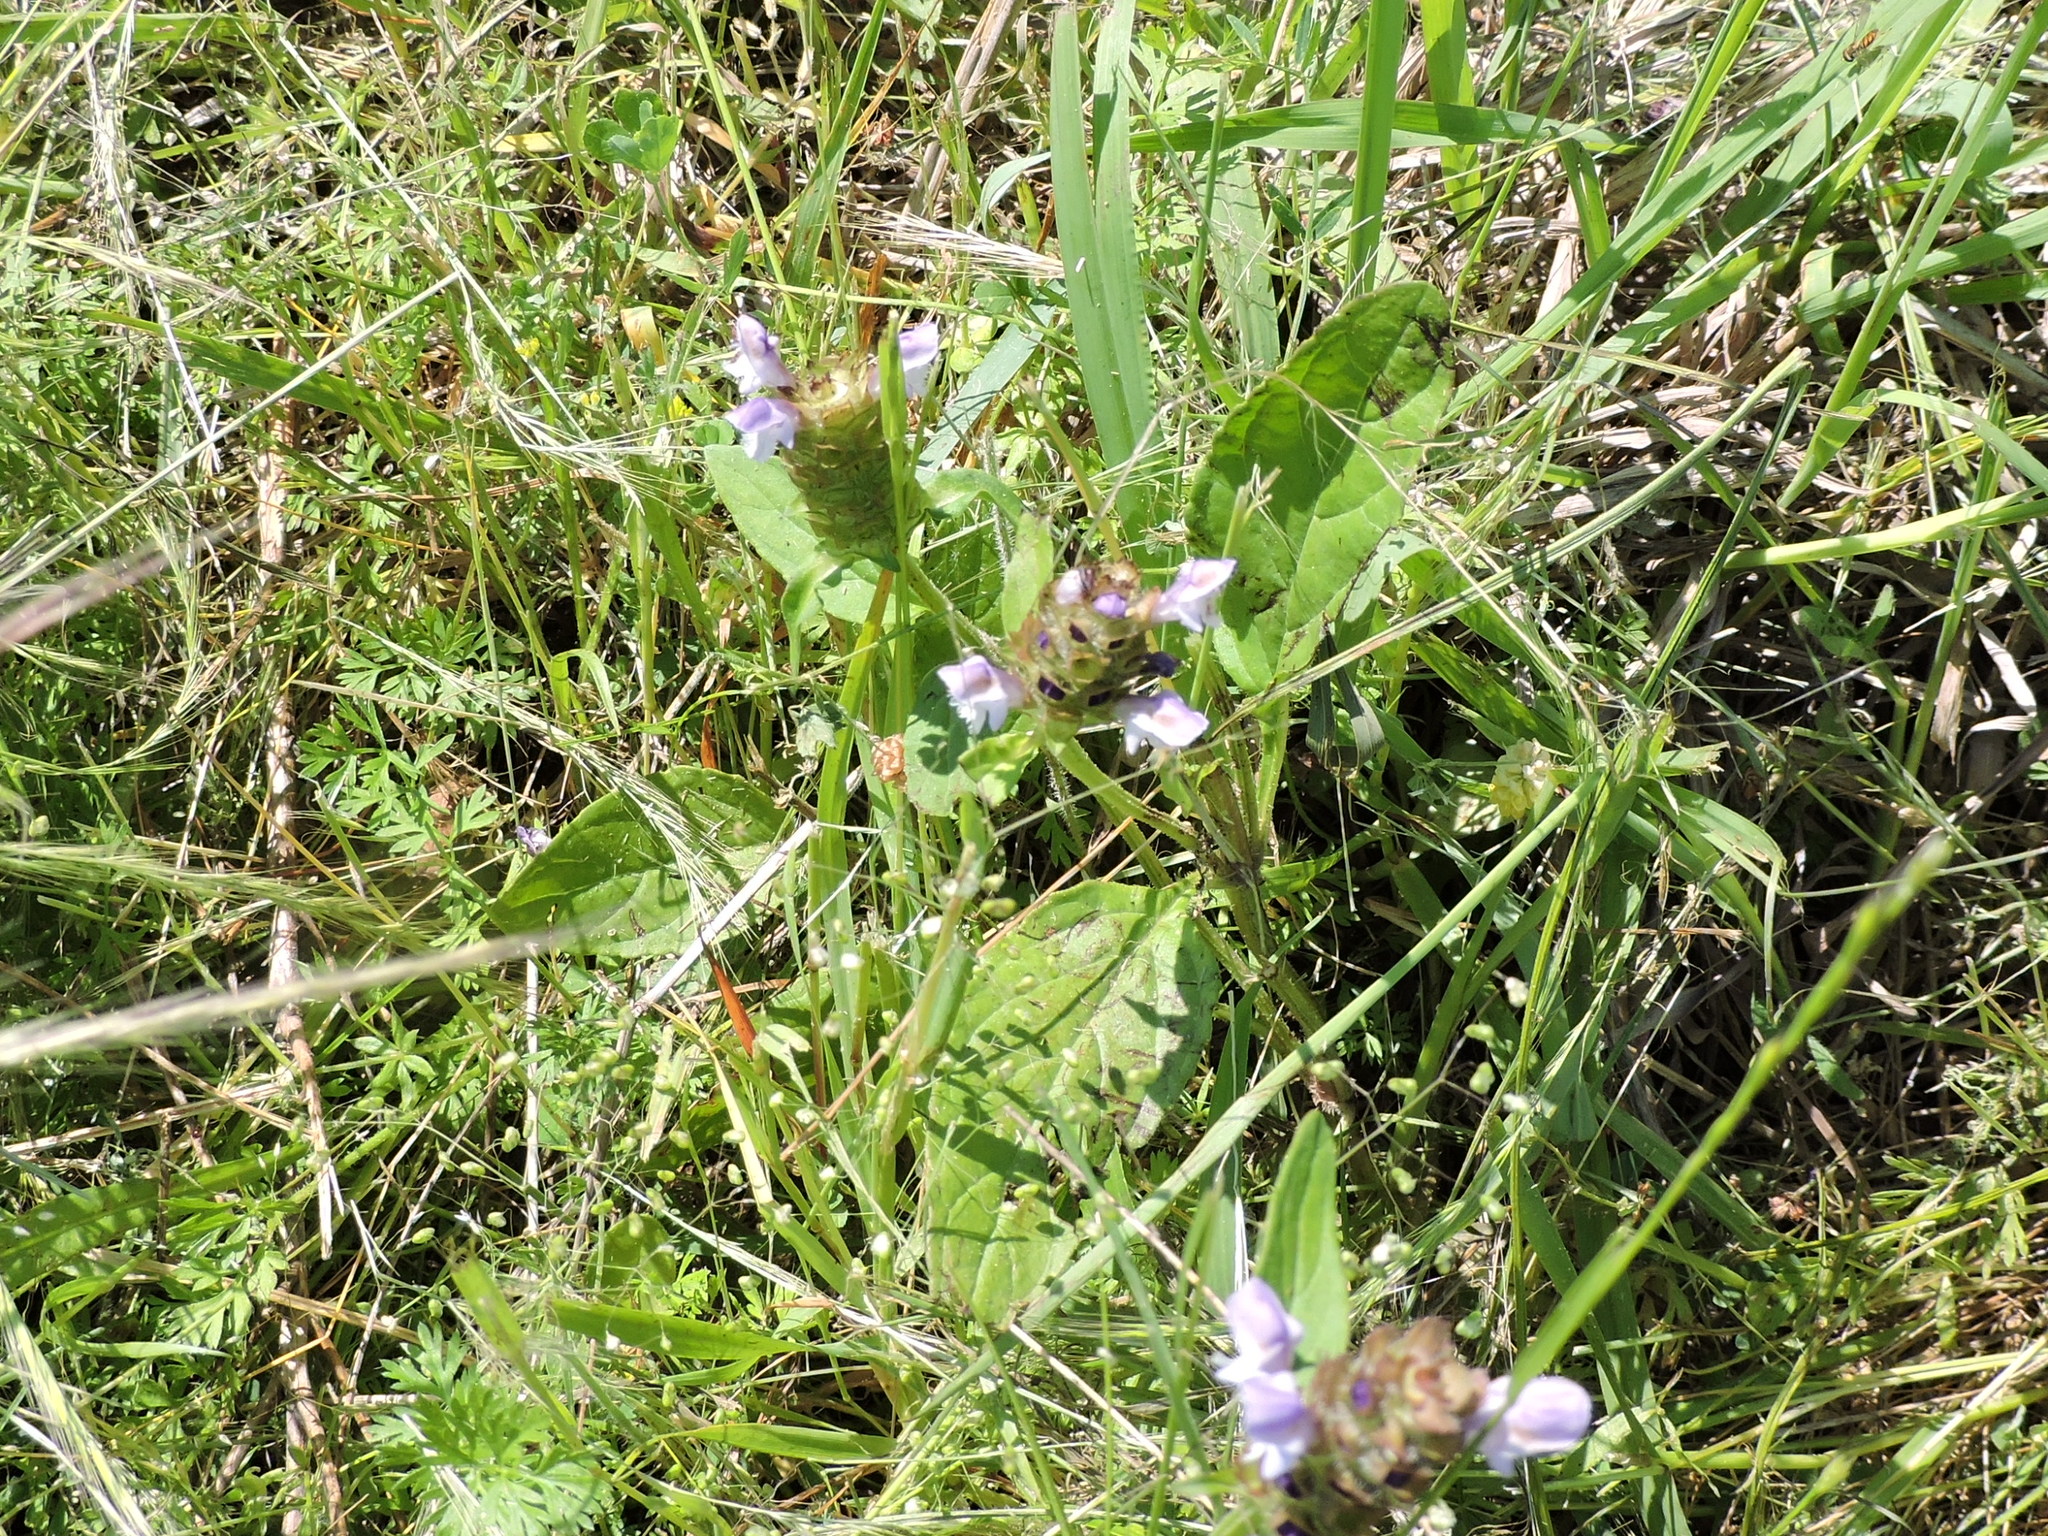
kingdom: Plantae
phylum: Tracheophyta
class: Magnoliopsida
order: Lamiales
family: Lamiaceae
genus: Prunella
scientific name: Prunella vulgaris
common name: Heal-all
